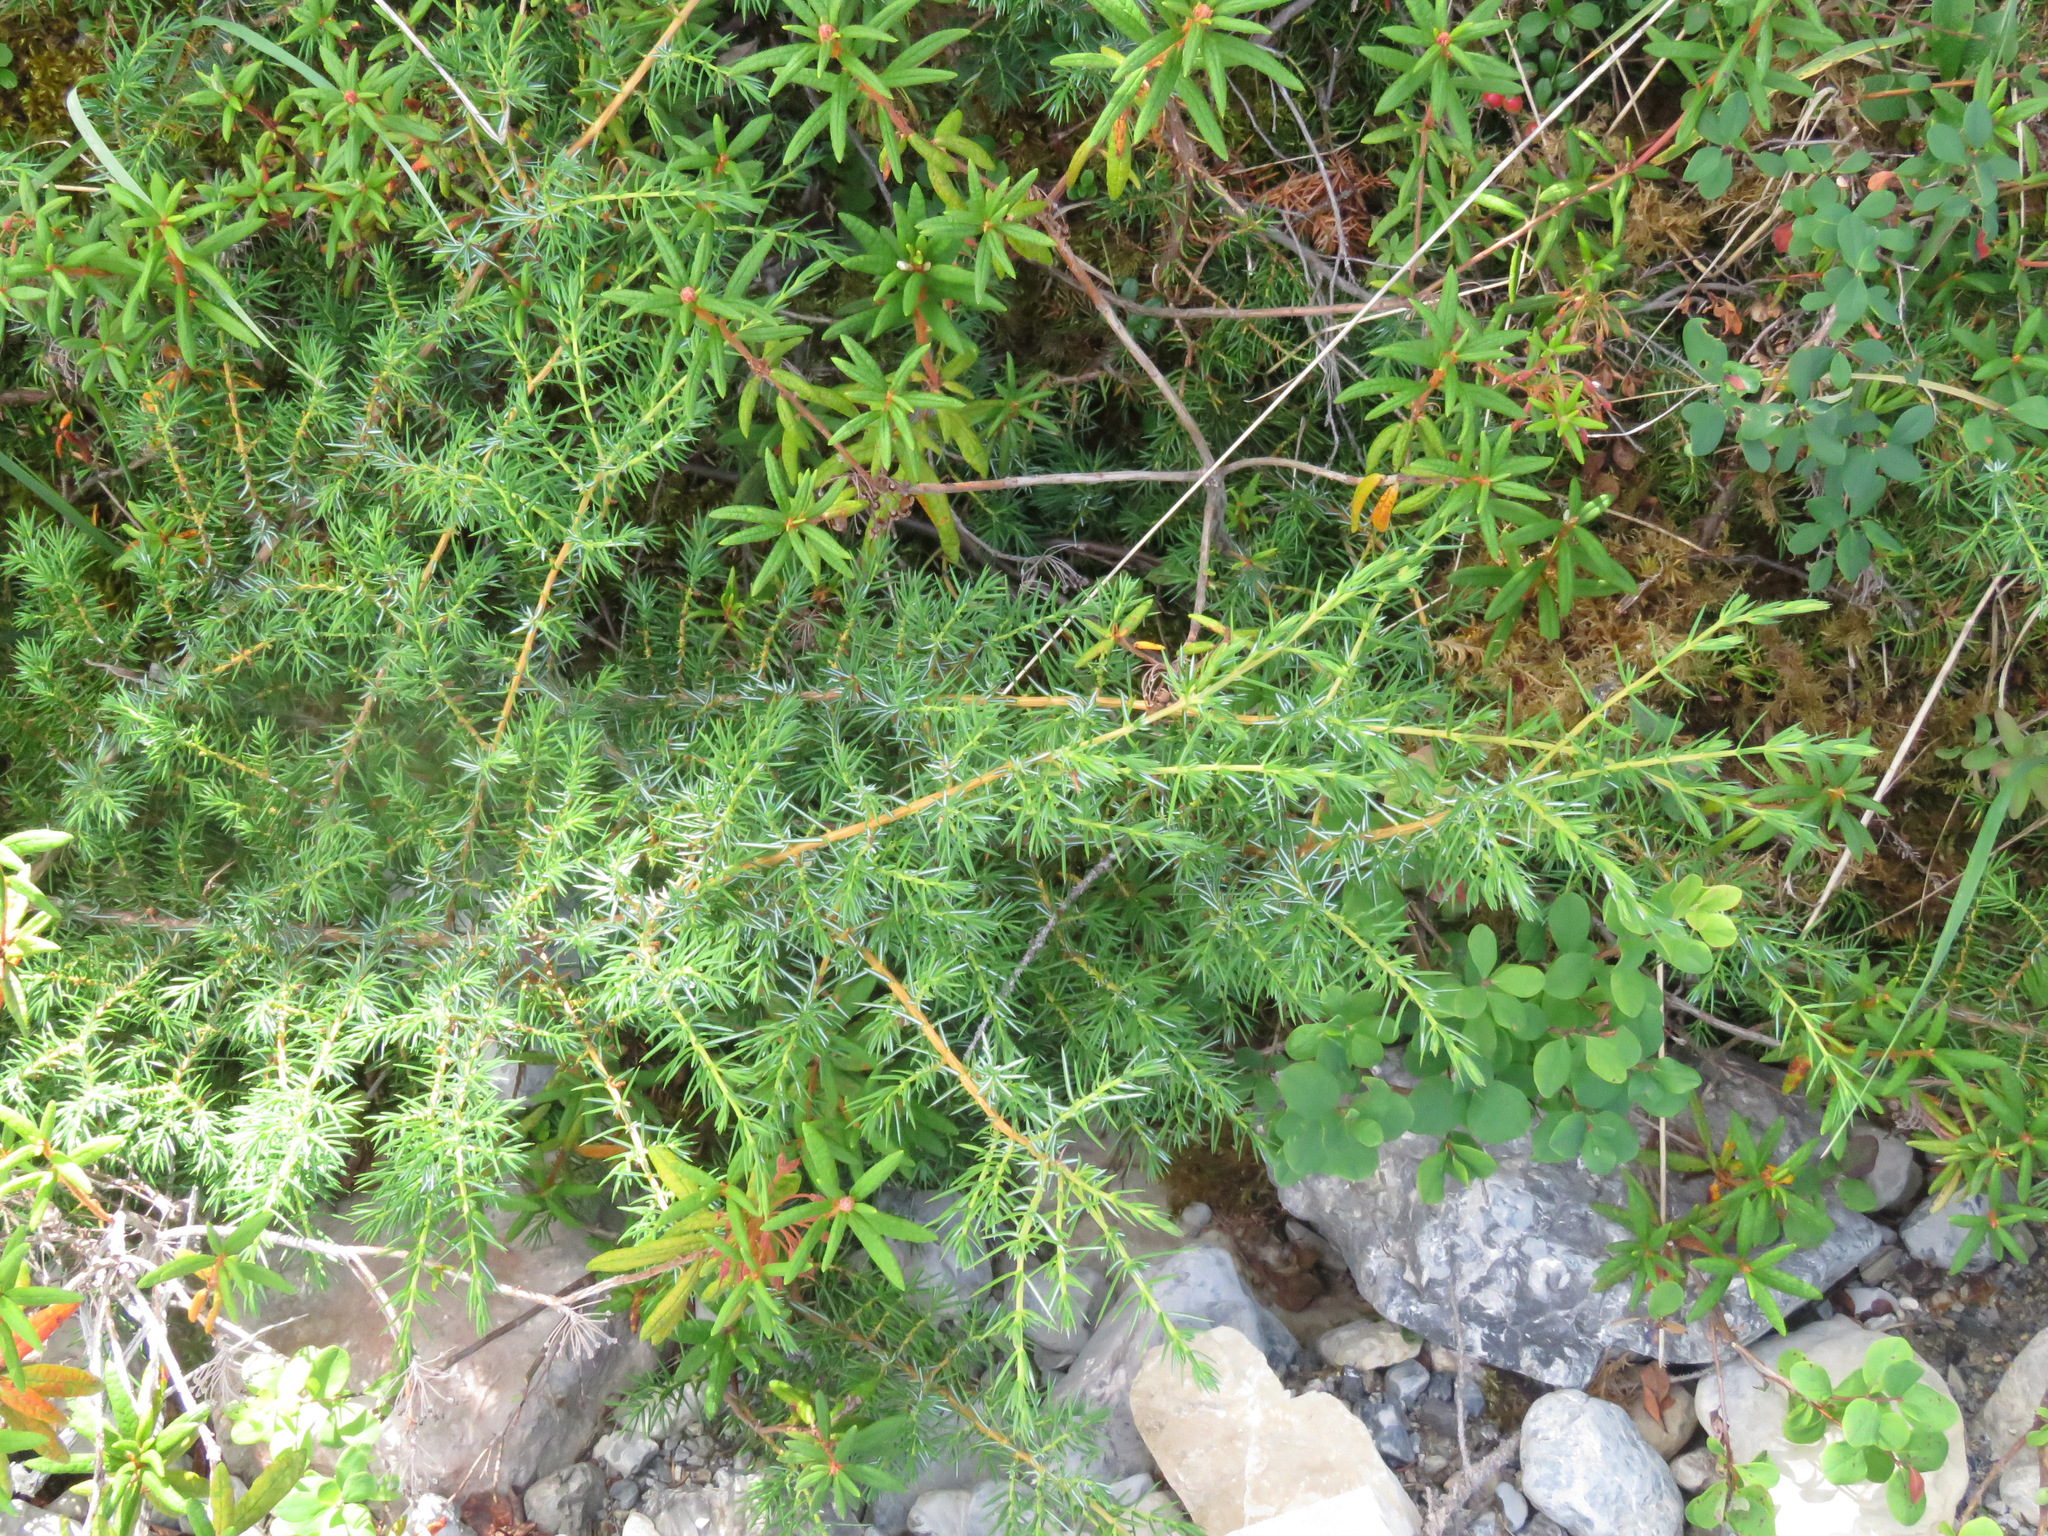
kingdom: Plantae
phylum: Tracheophyta
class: Pinopsida
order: Pinales
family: Cupressaceae
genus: Juniperus
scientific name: Juniperus communis
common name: Common juniper
